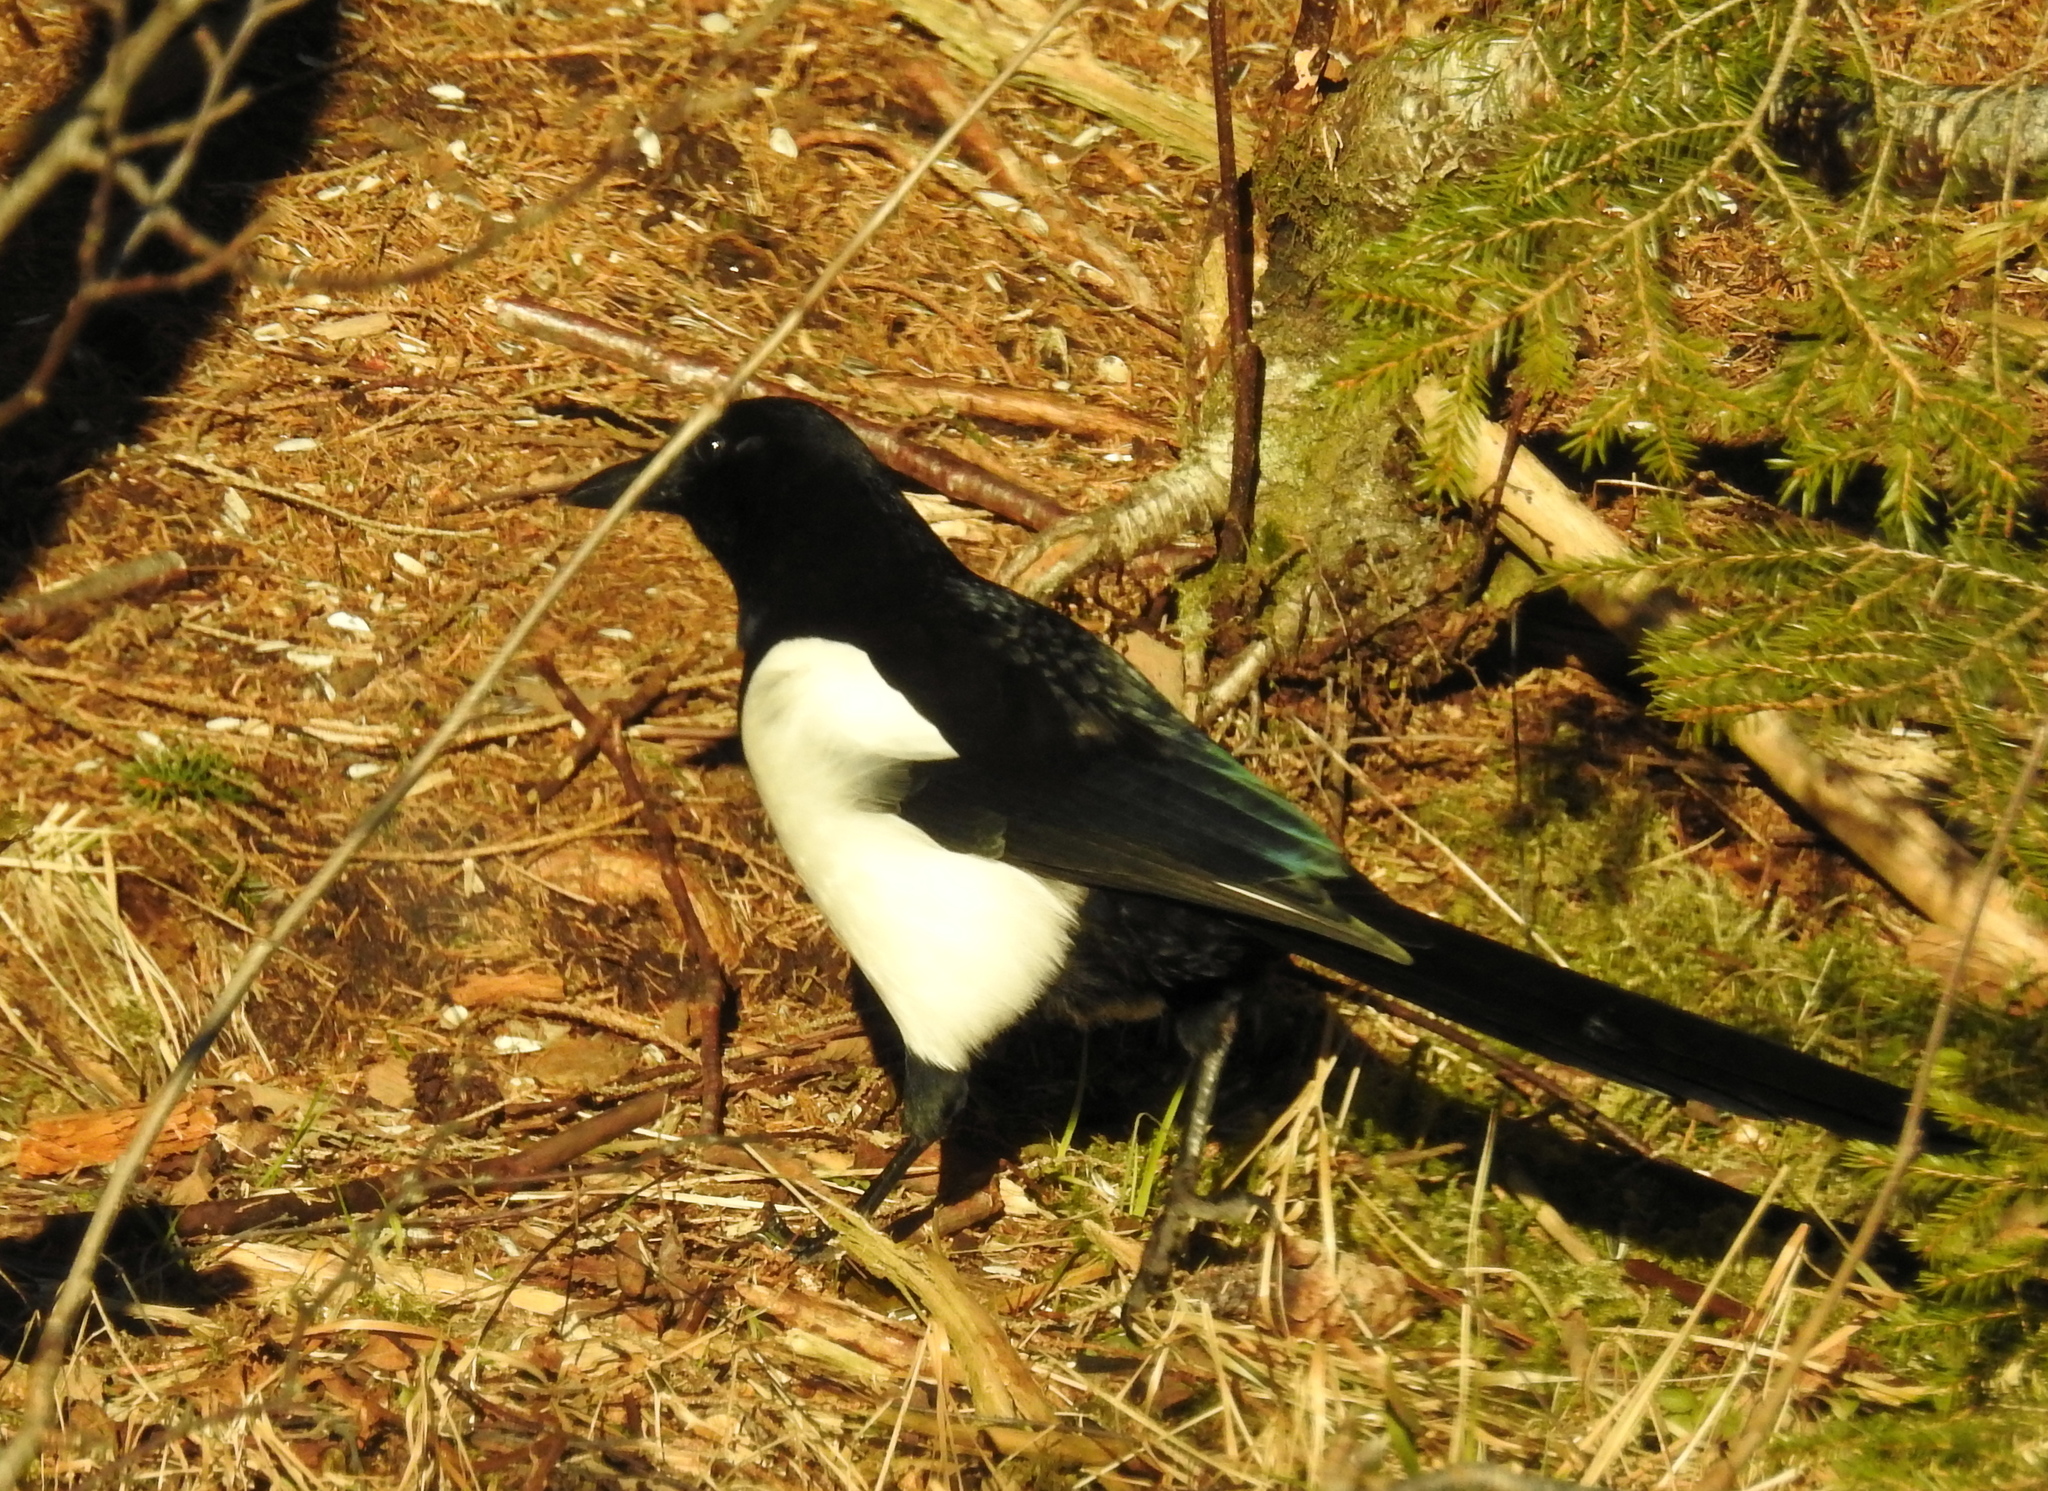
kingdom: Animalia
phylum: Chordata
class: Aves
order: Passeriformes
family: Corvidae
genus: Pica
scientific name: Pica pica
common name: Eurasian magpie
